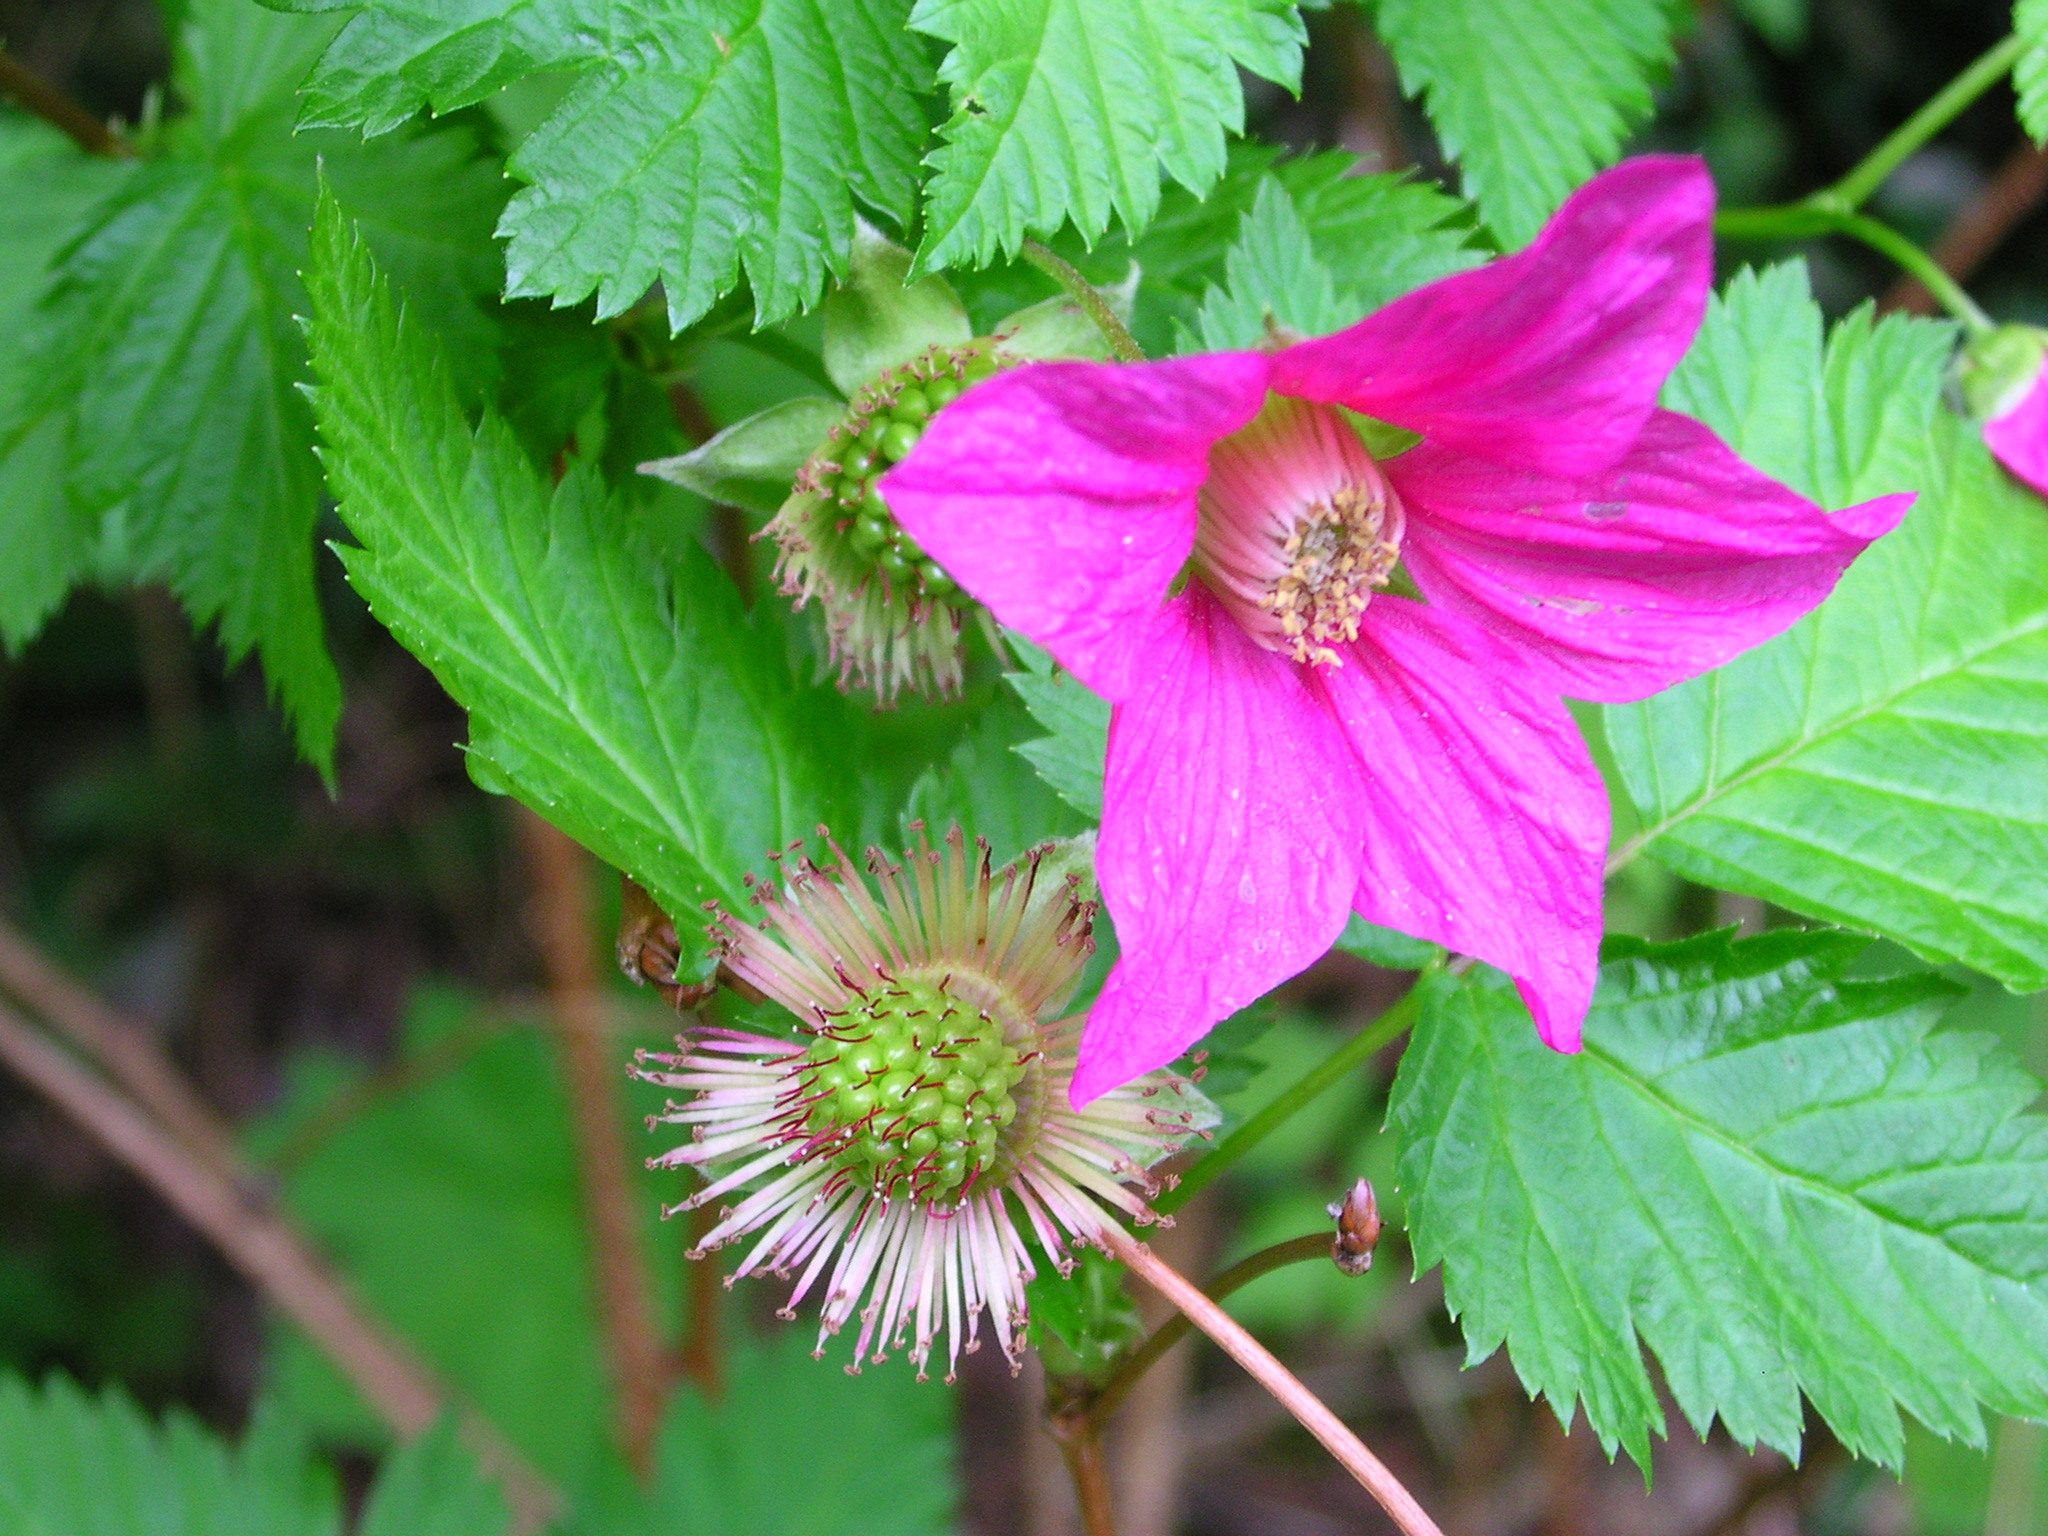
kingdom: Plantae
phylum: Tracheophyta
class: Magnoliopsida
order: Rosales
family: Rosaceae
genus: Rubus
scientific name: Rubus spectabilis
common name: Salmonberry
